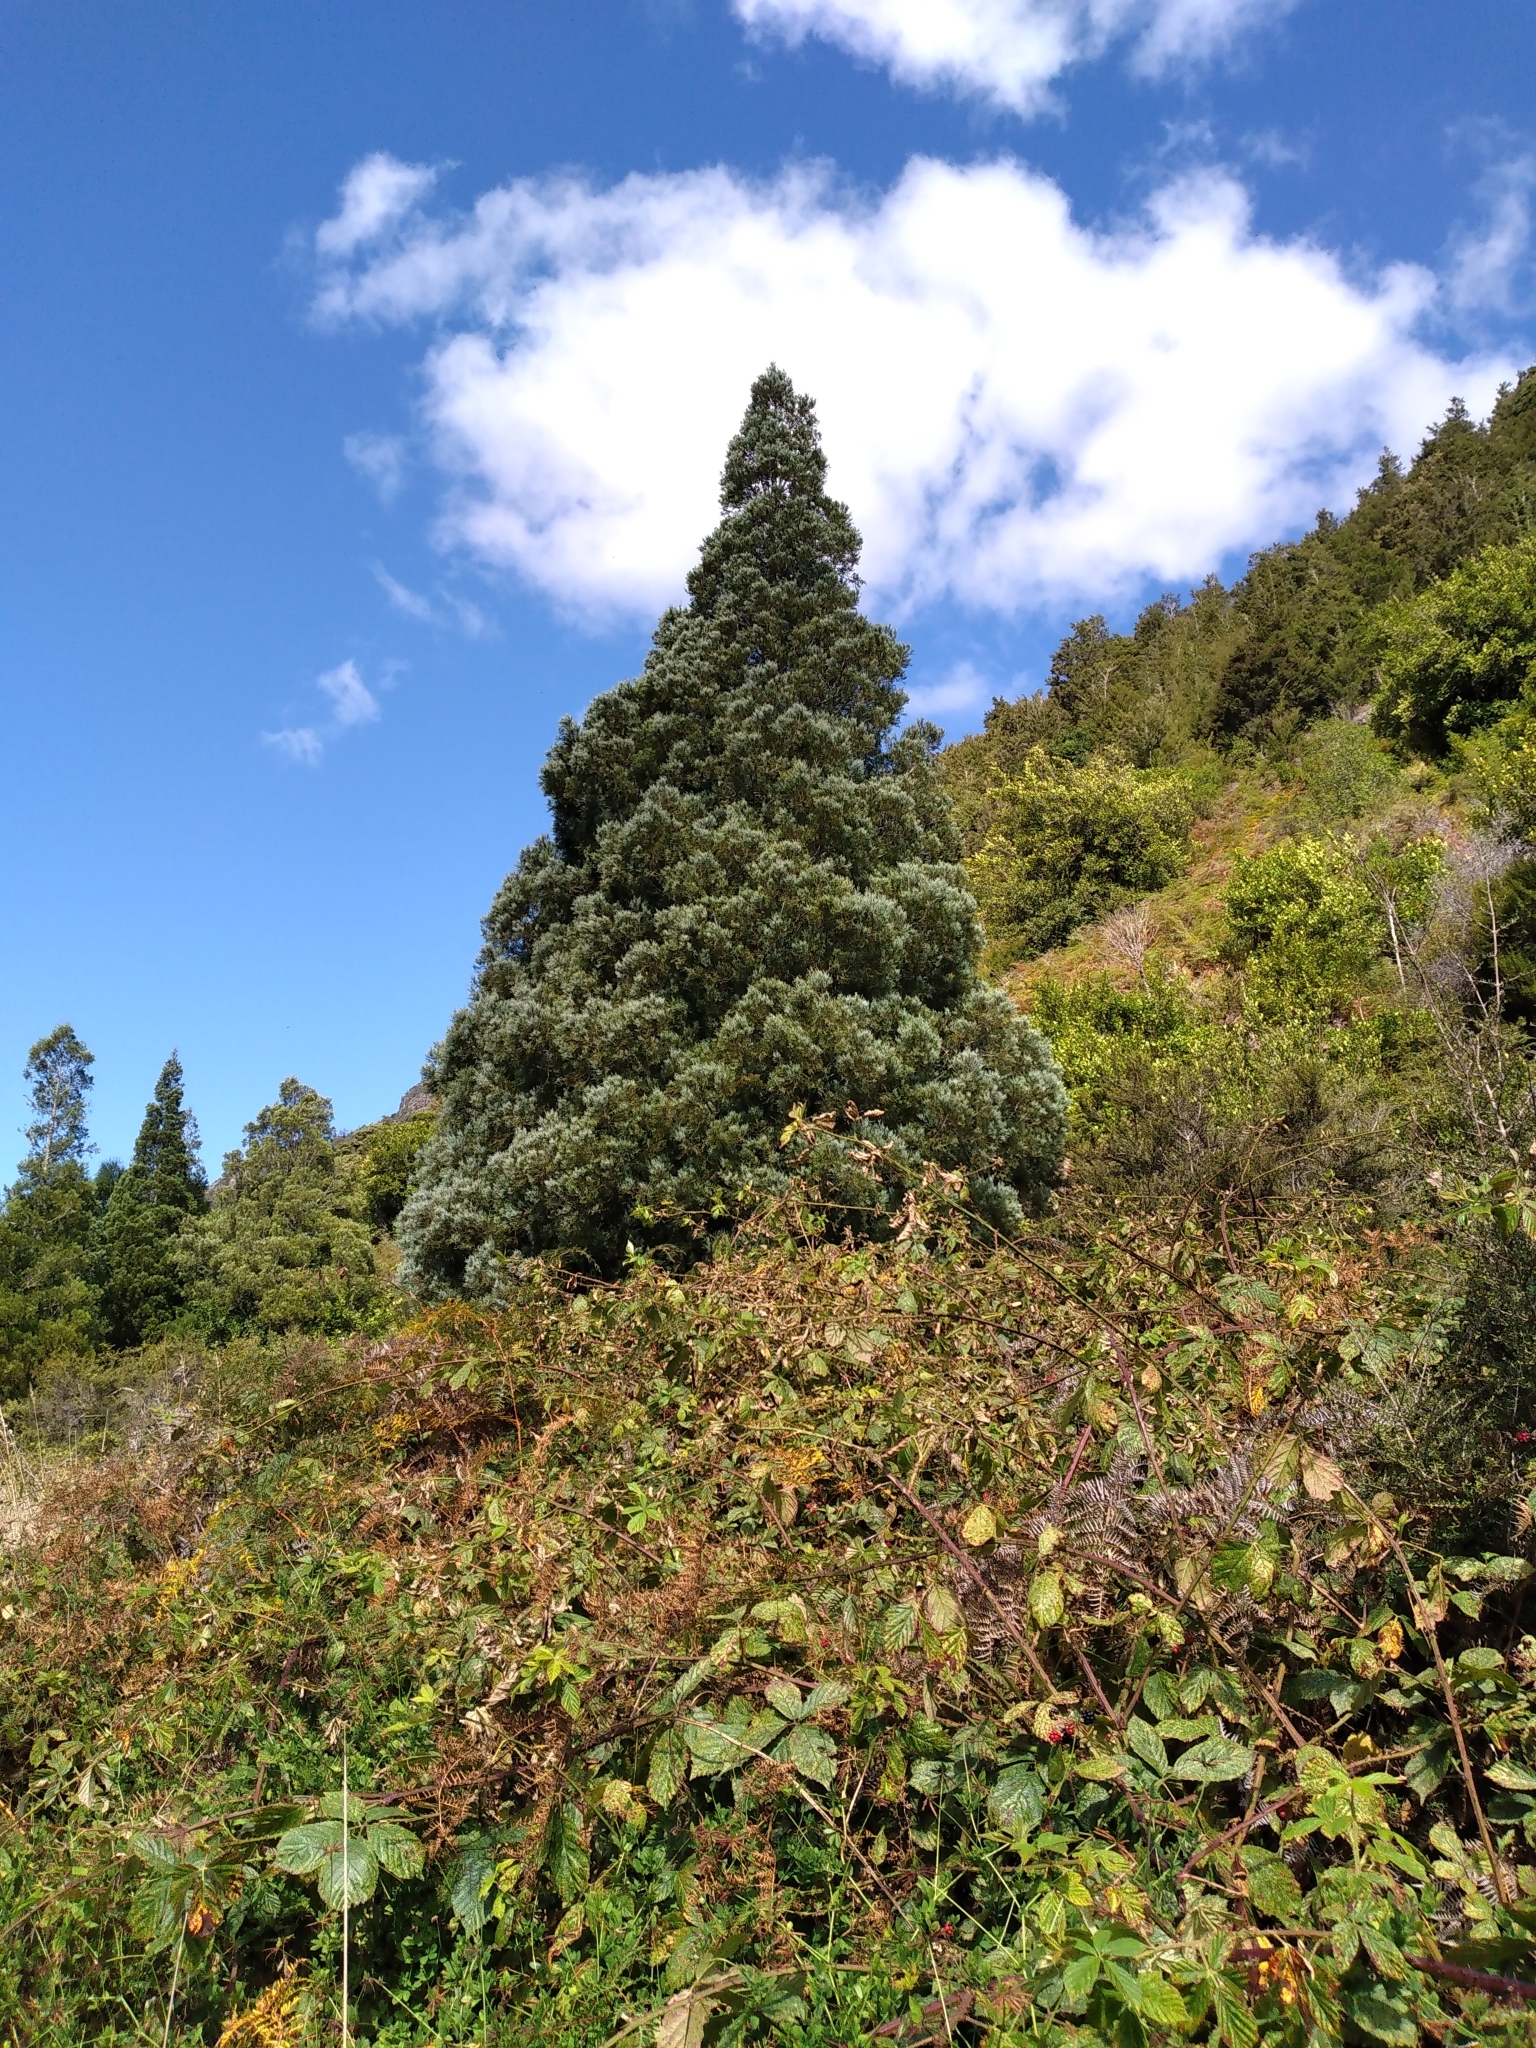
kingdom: Plantae
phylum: Tracheophyta
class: Pinopsida
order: Pinales
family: Podocarpaceae
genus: Dacrycarpus
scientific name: Dacrycarpus dacrydioides
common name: White pine
